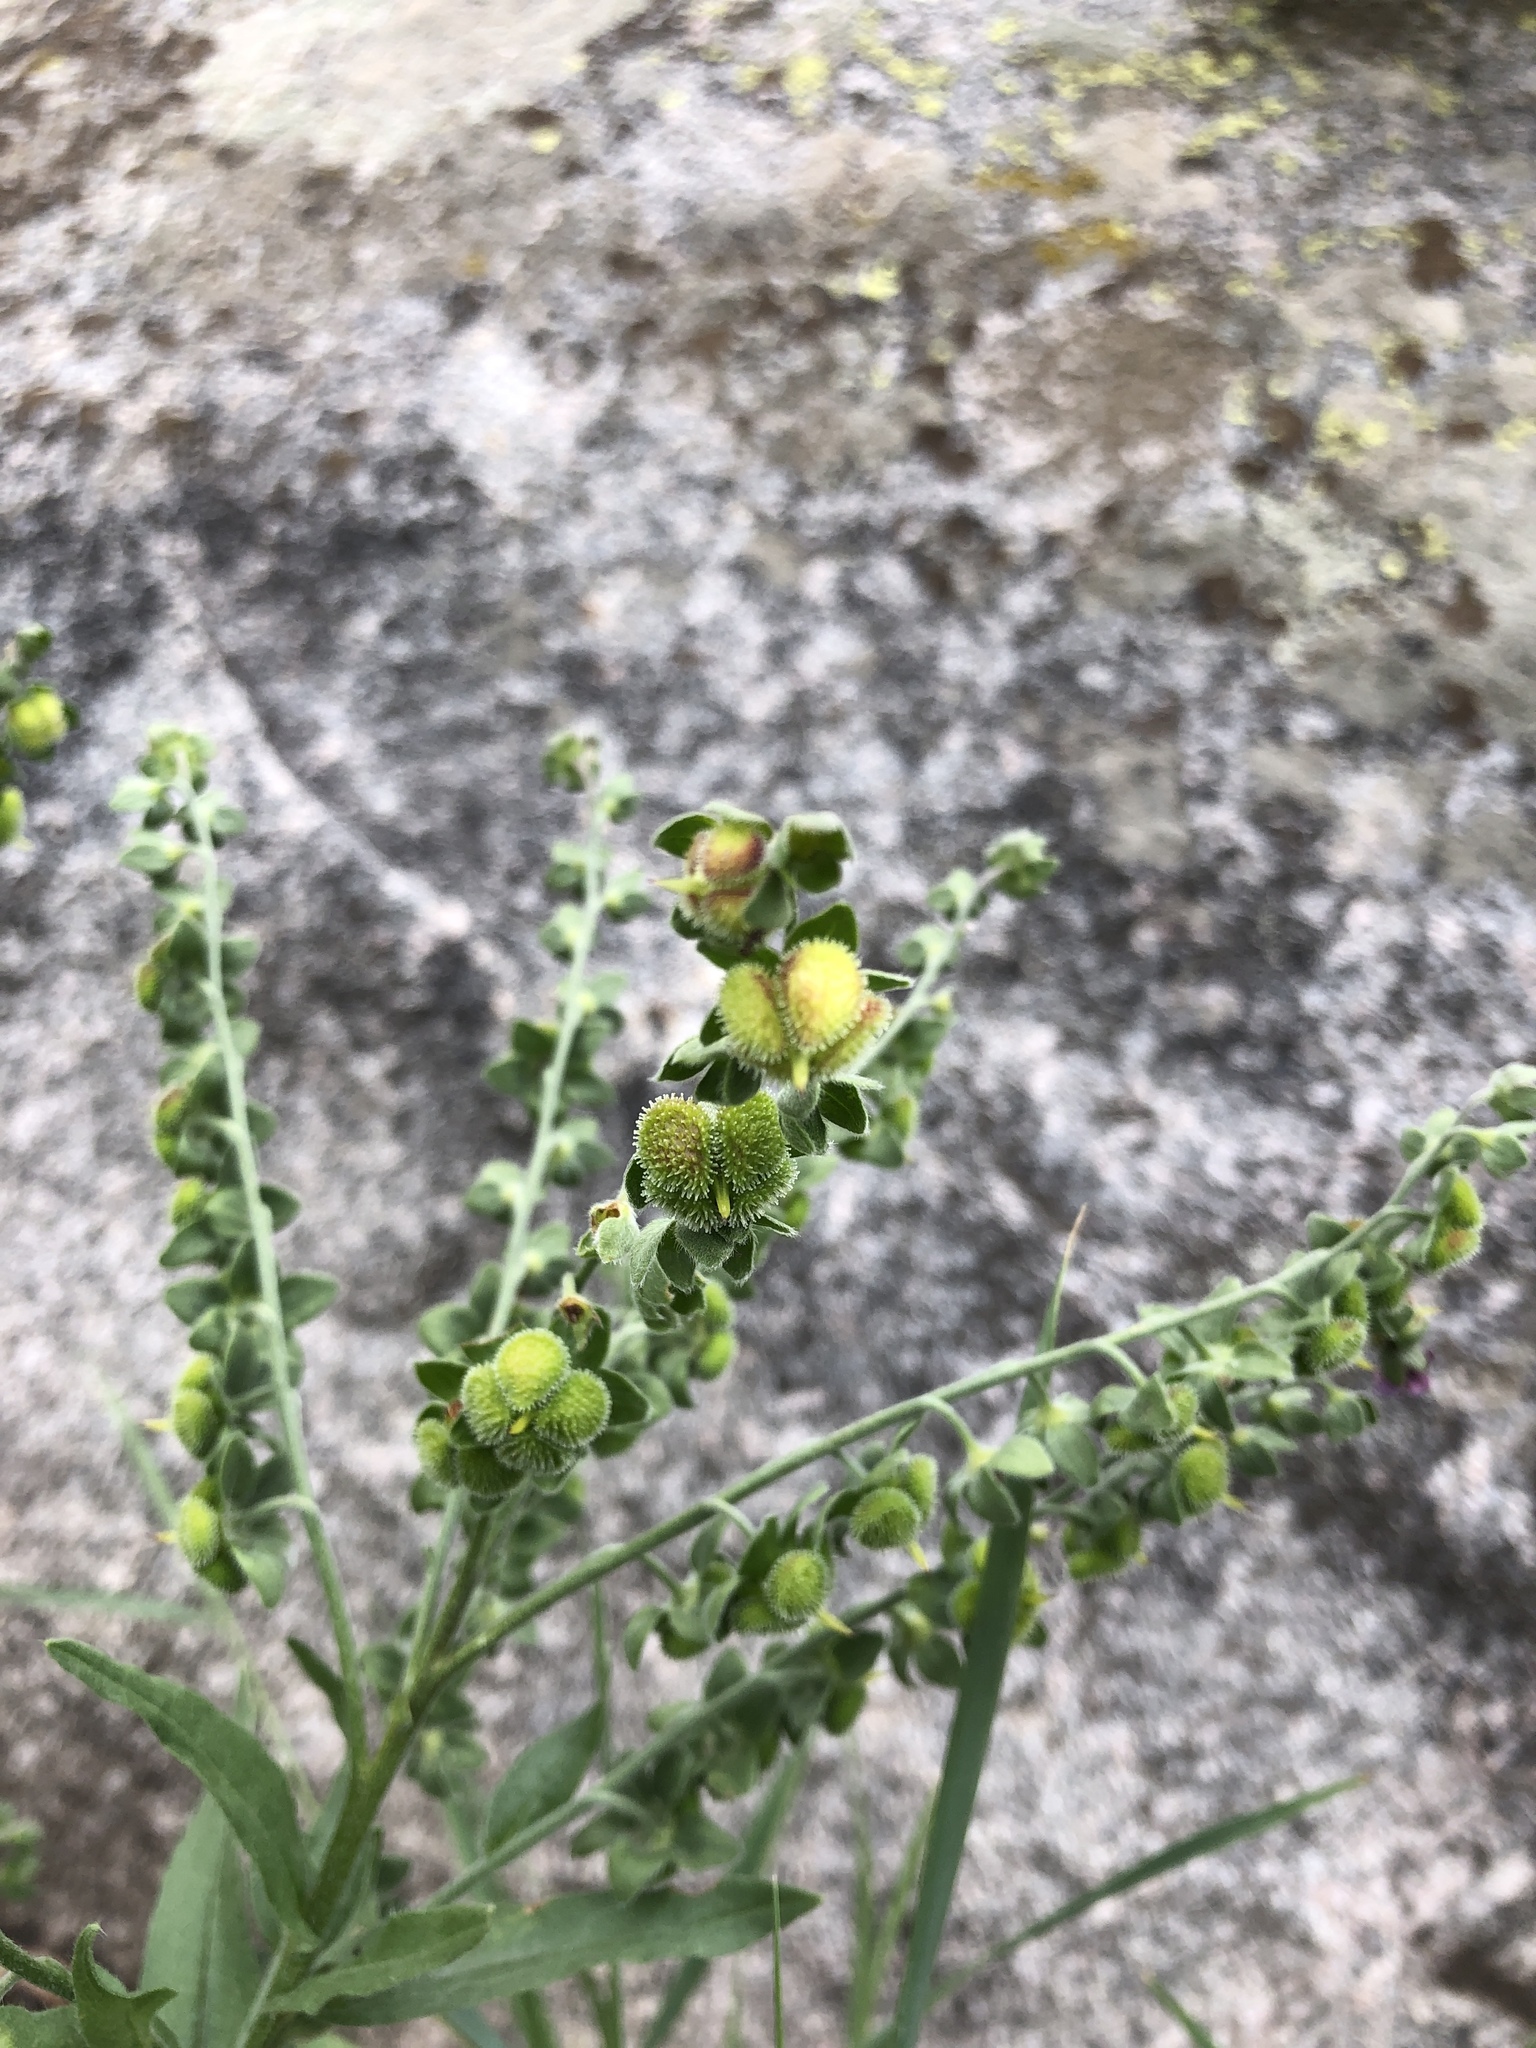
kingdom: Plantae
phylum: Tracheophyta
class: Magnoliopsida
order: Boraginales
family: Boraginaceae
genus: Cynoglossum
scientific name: Cynoglossum officinale
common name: Hound's-tongue
